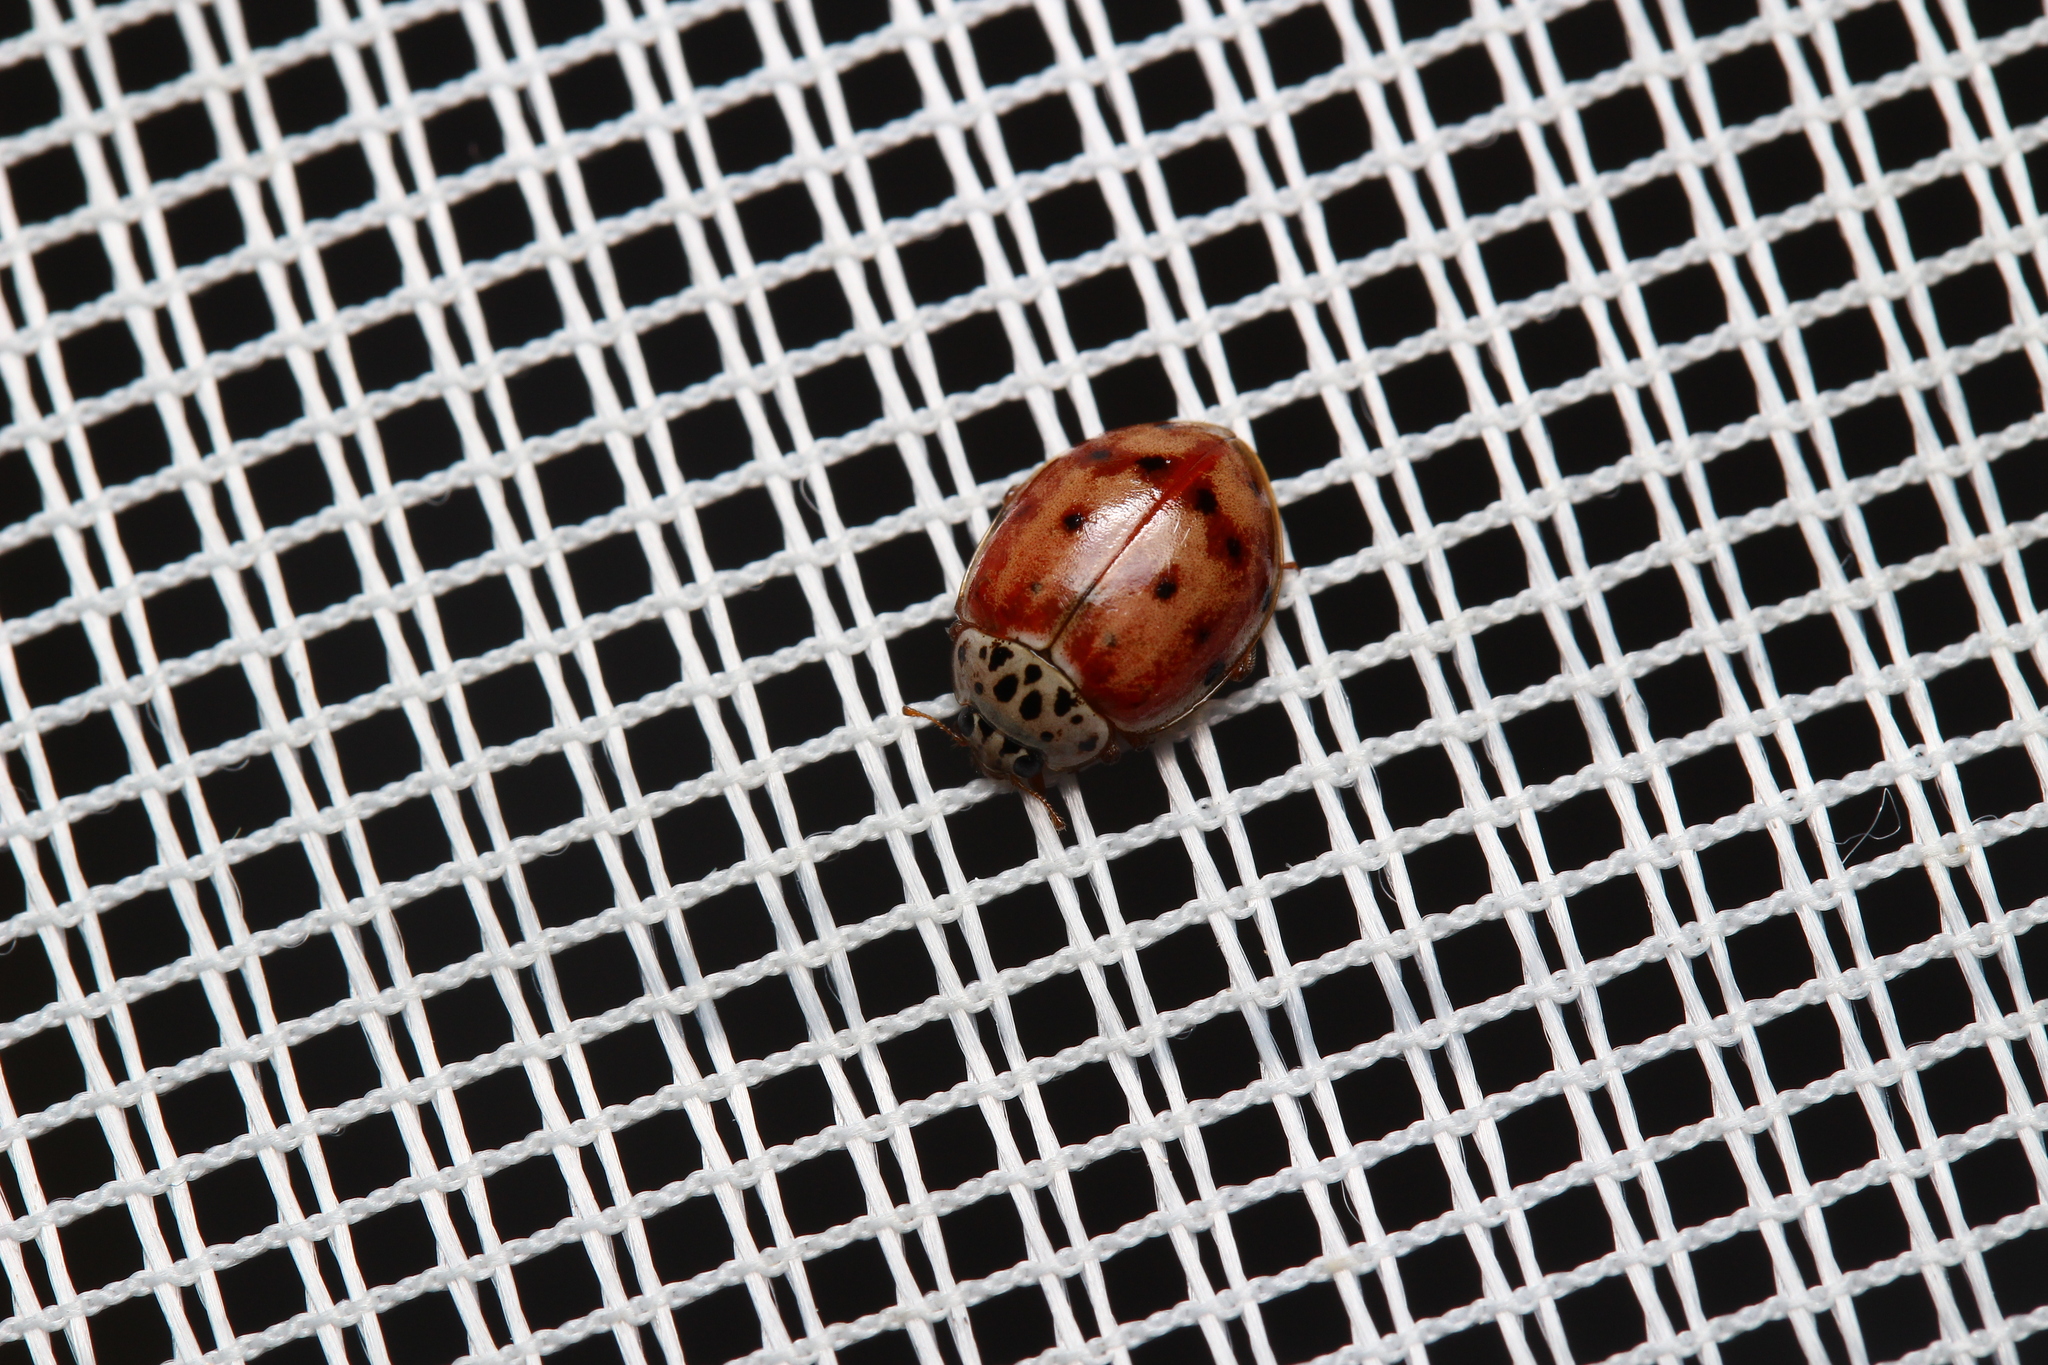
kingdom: Animalia
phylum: Arthropoda
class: Insecta
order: Coleoptera
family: Coccinellidae
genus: Harmonia
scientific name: Harmonia quadripunctata
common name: Cream-streaked ladybird
